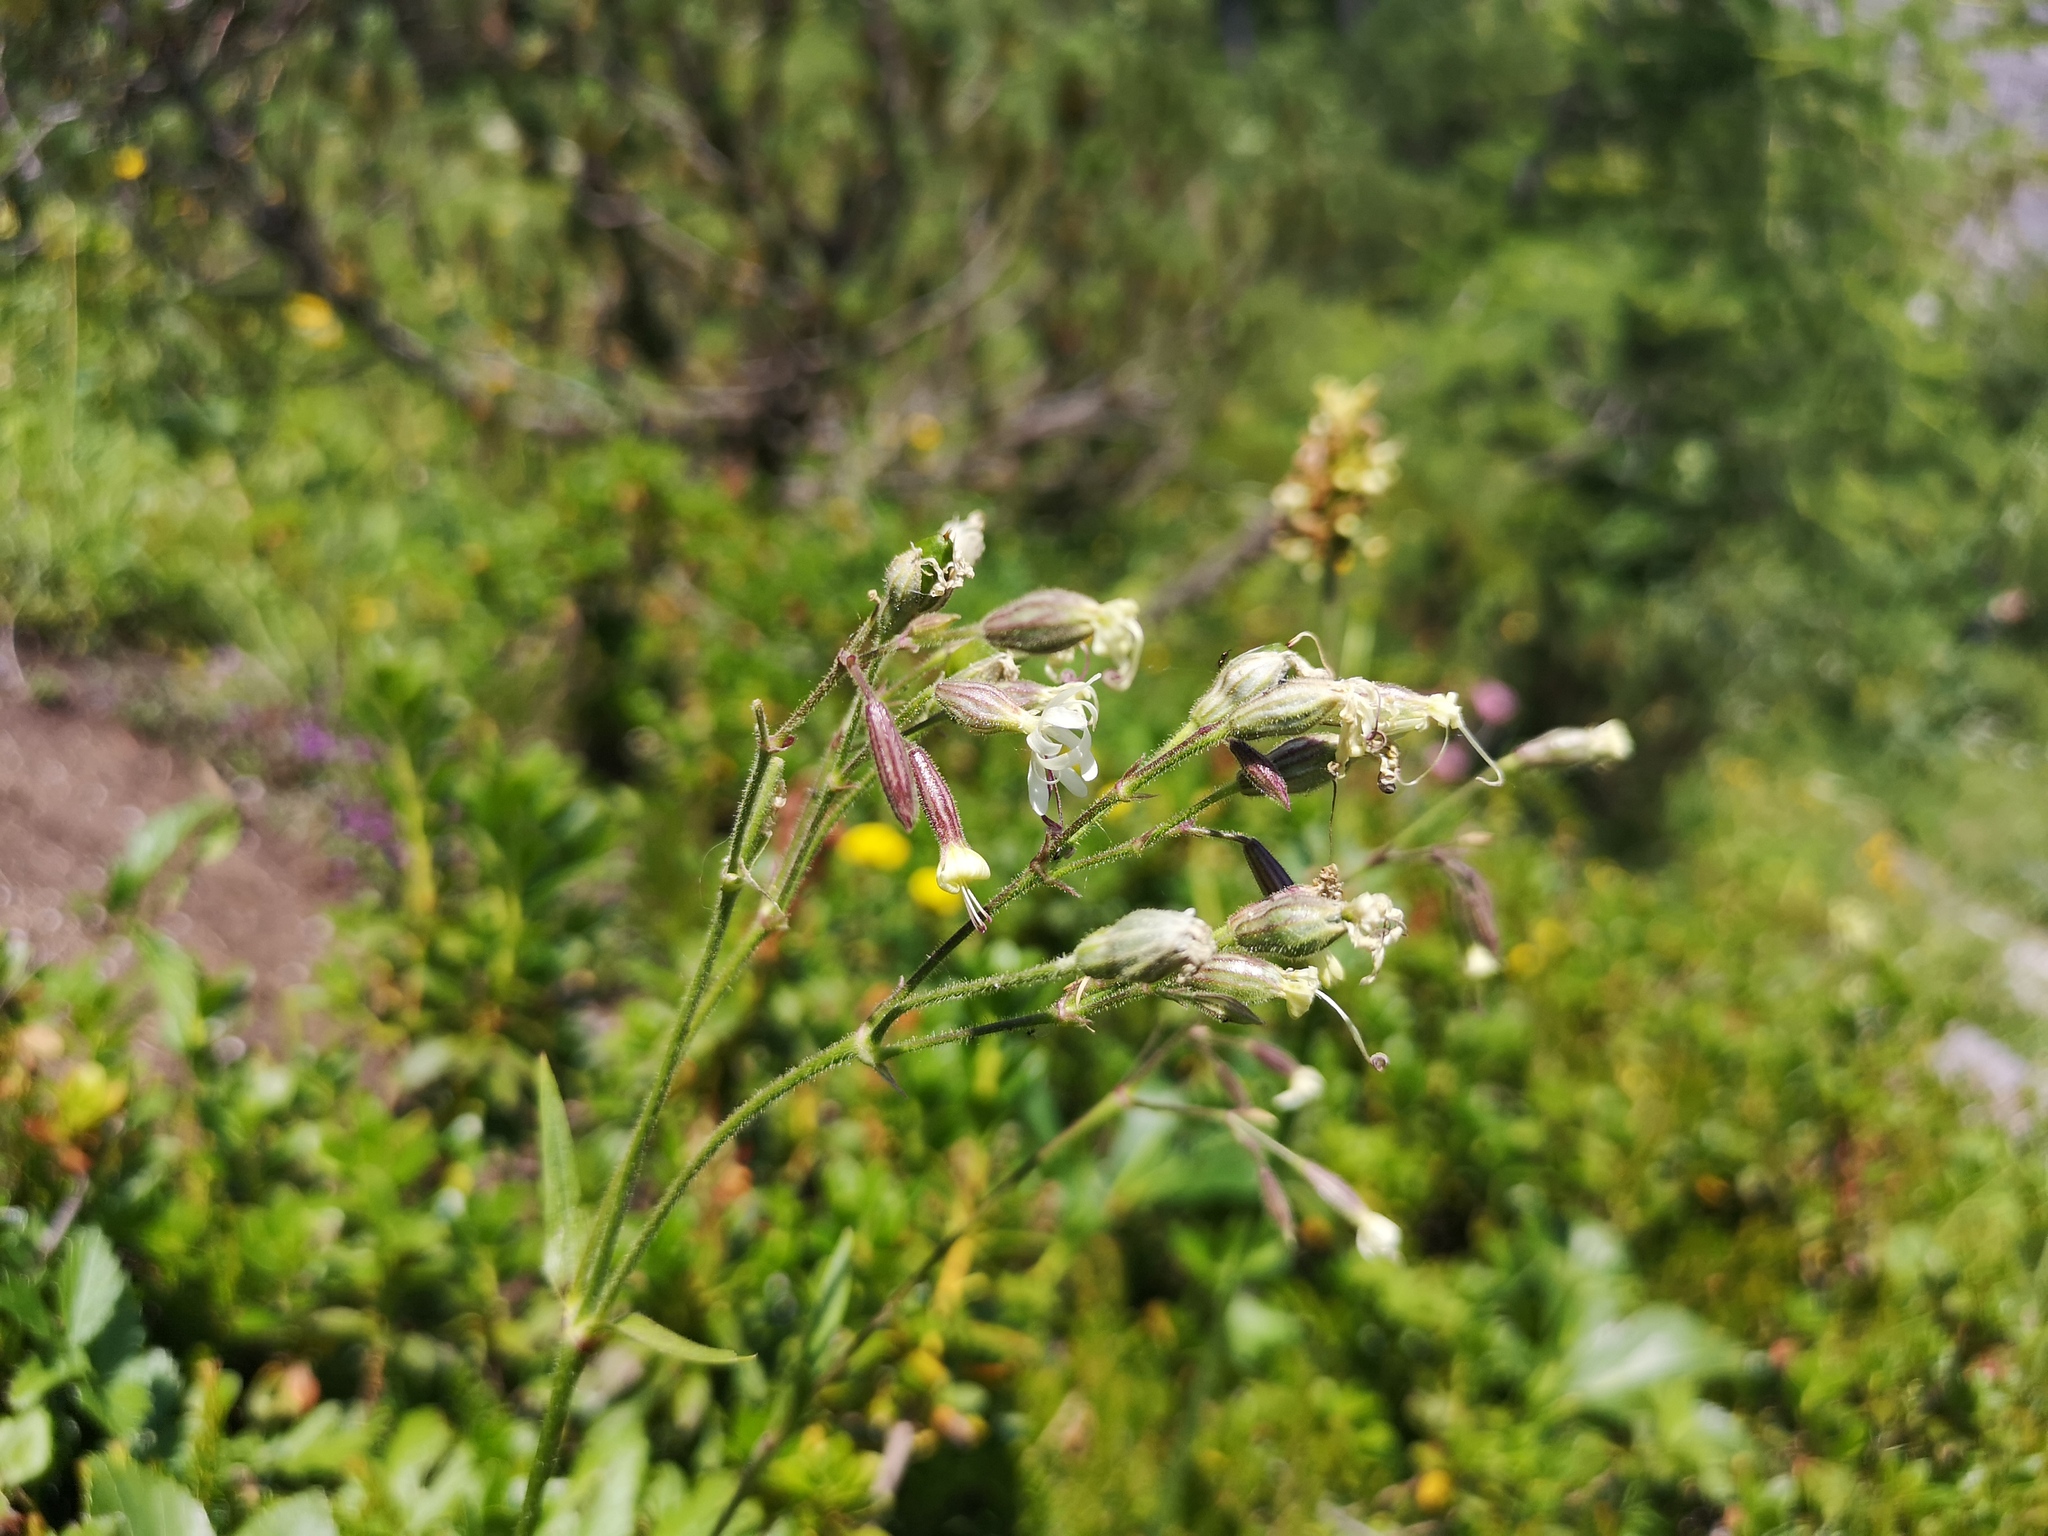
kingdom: Plantae
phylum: Tracheophyta
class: Magnoliopsida
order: Caryophyllales
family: Caryophyllaceae
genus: Silene
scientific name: Silene nutans
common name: Nottingham catchfly
